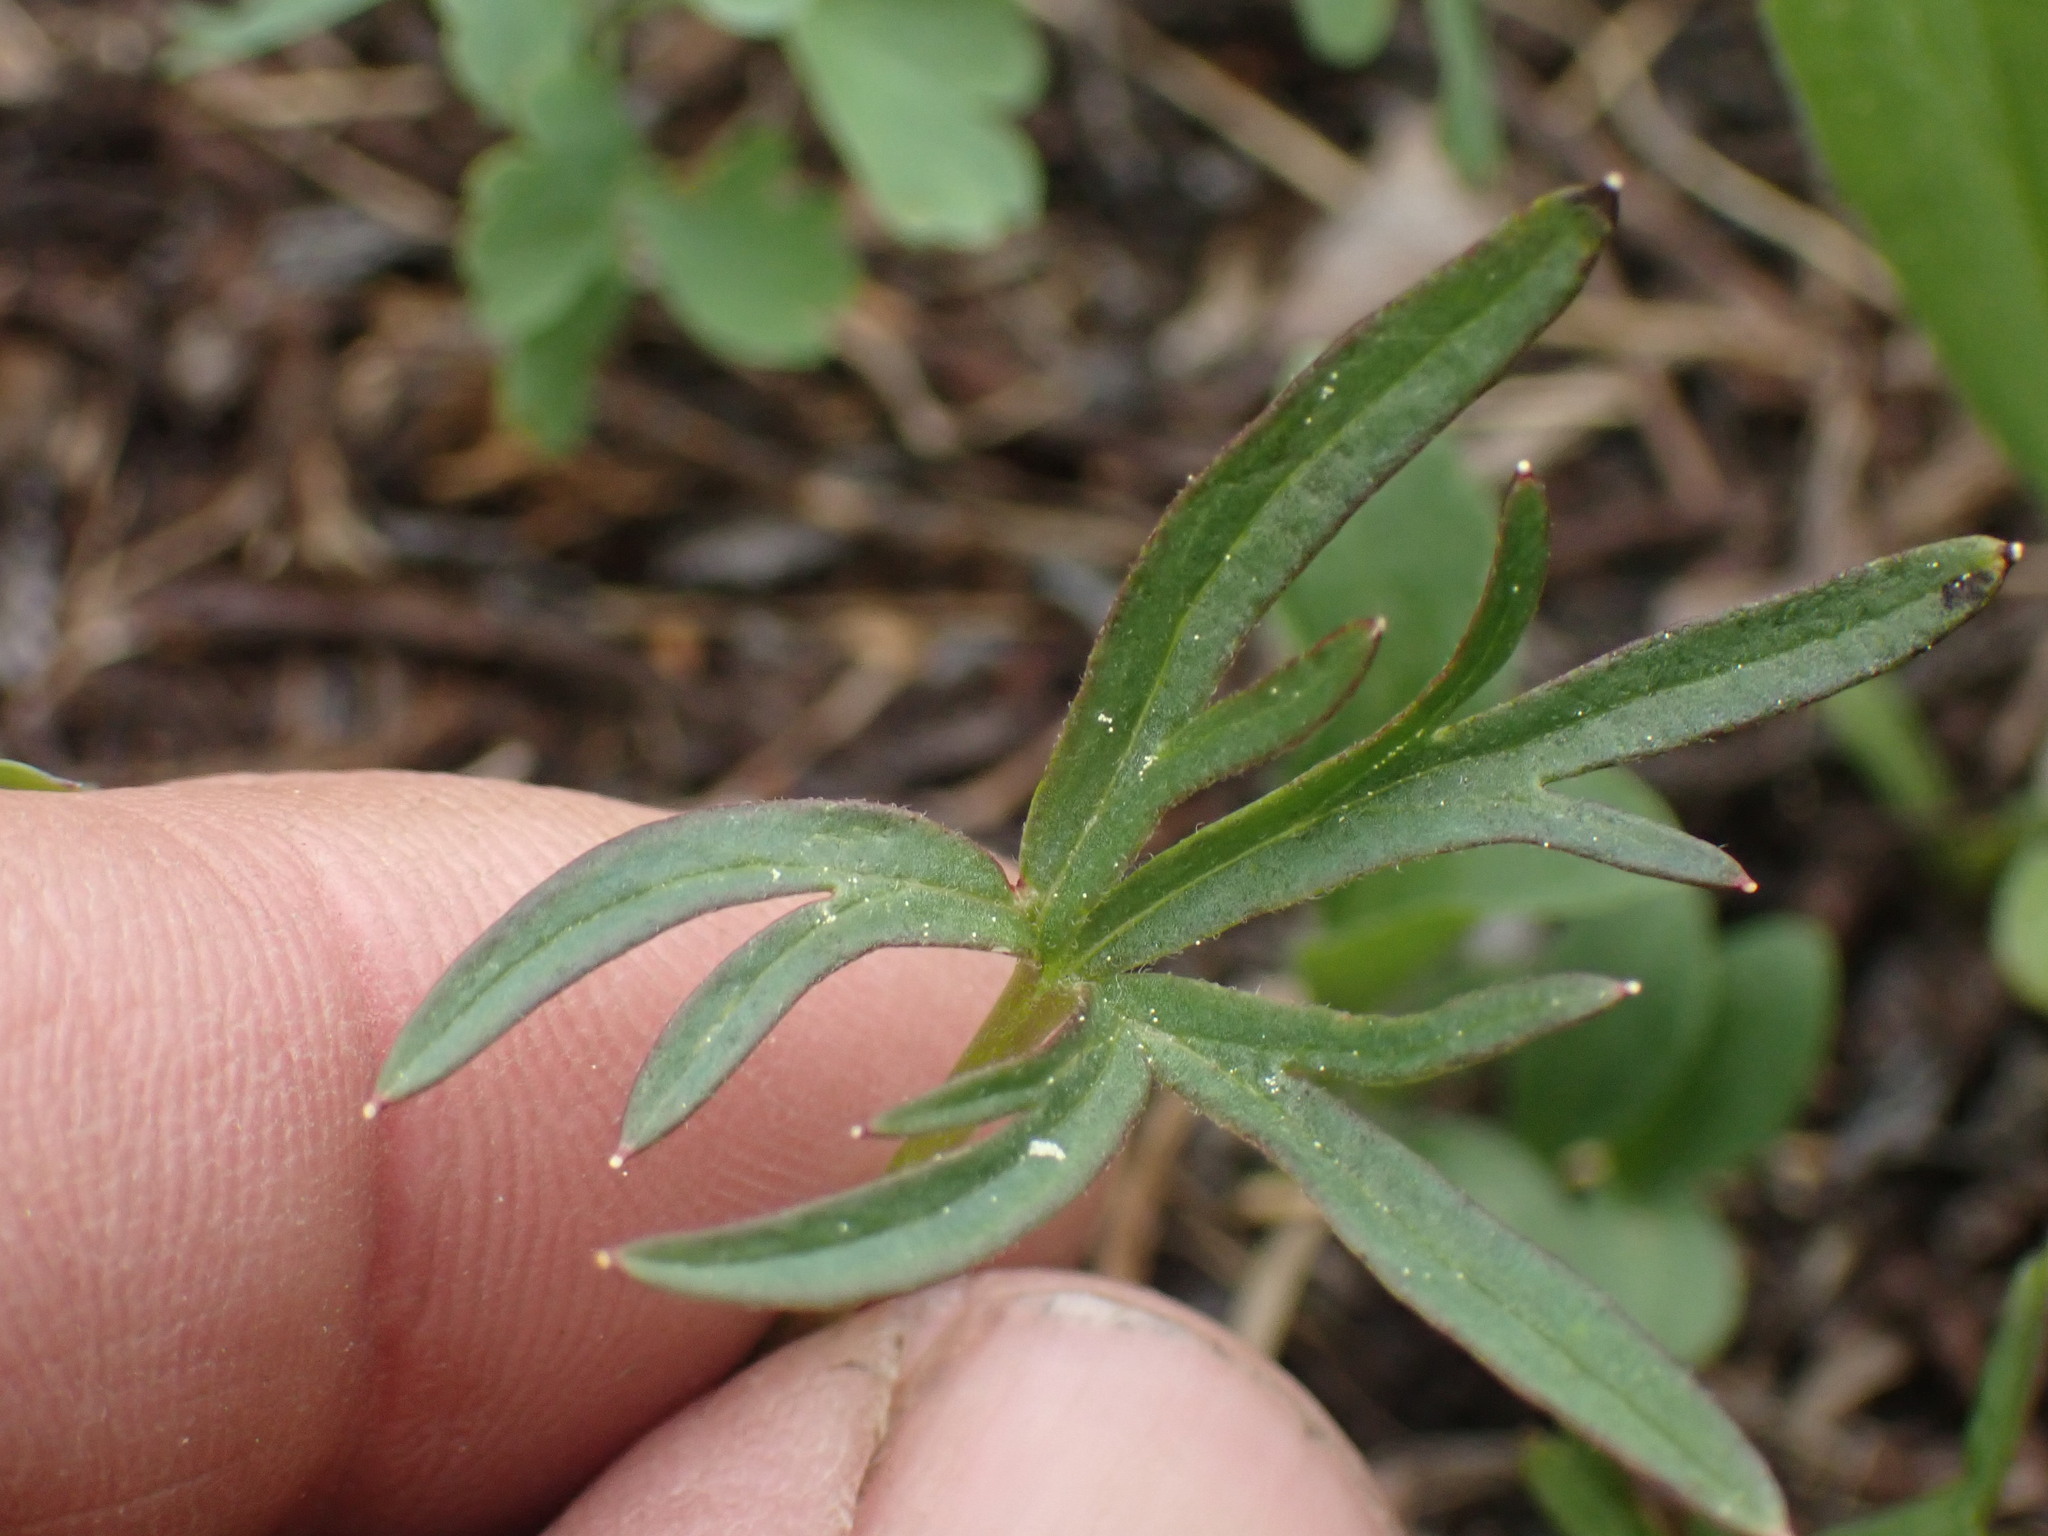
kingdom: Plantae
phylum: Tracheophyta
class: Magnoliopsida
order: Ranunculales
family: Ranunculaceae
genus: Delphinium
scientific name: Delphinium sutherlandii
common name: Sutherland's larkspur
